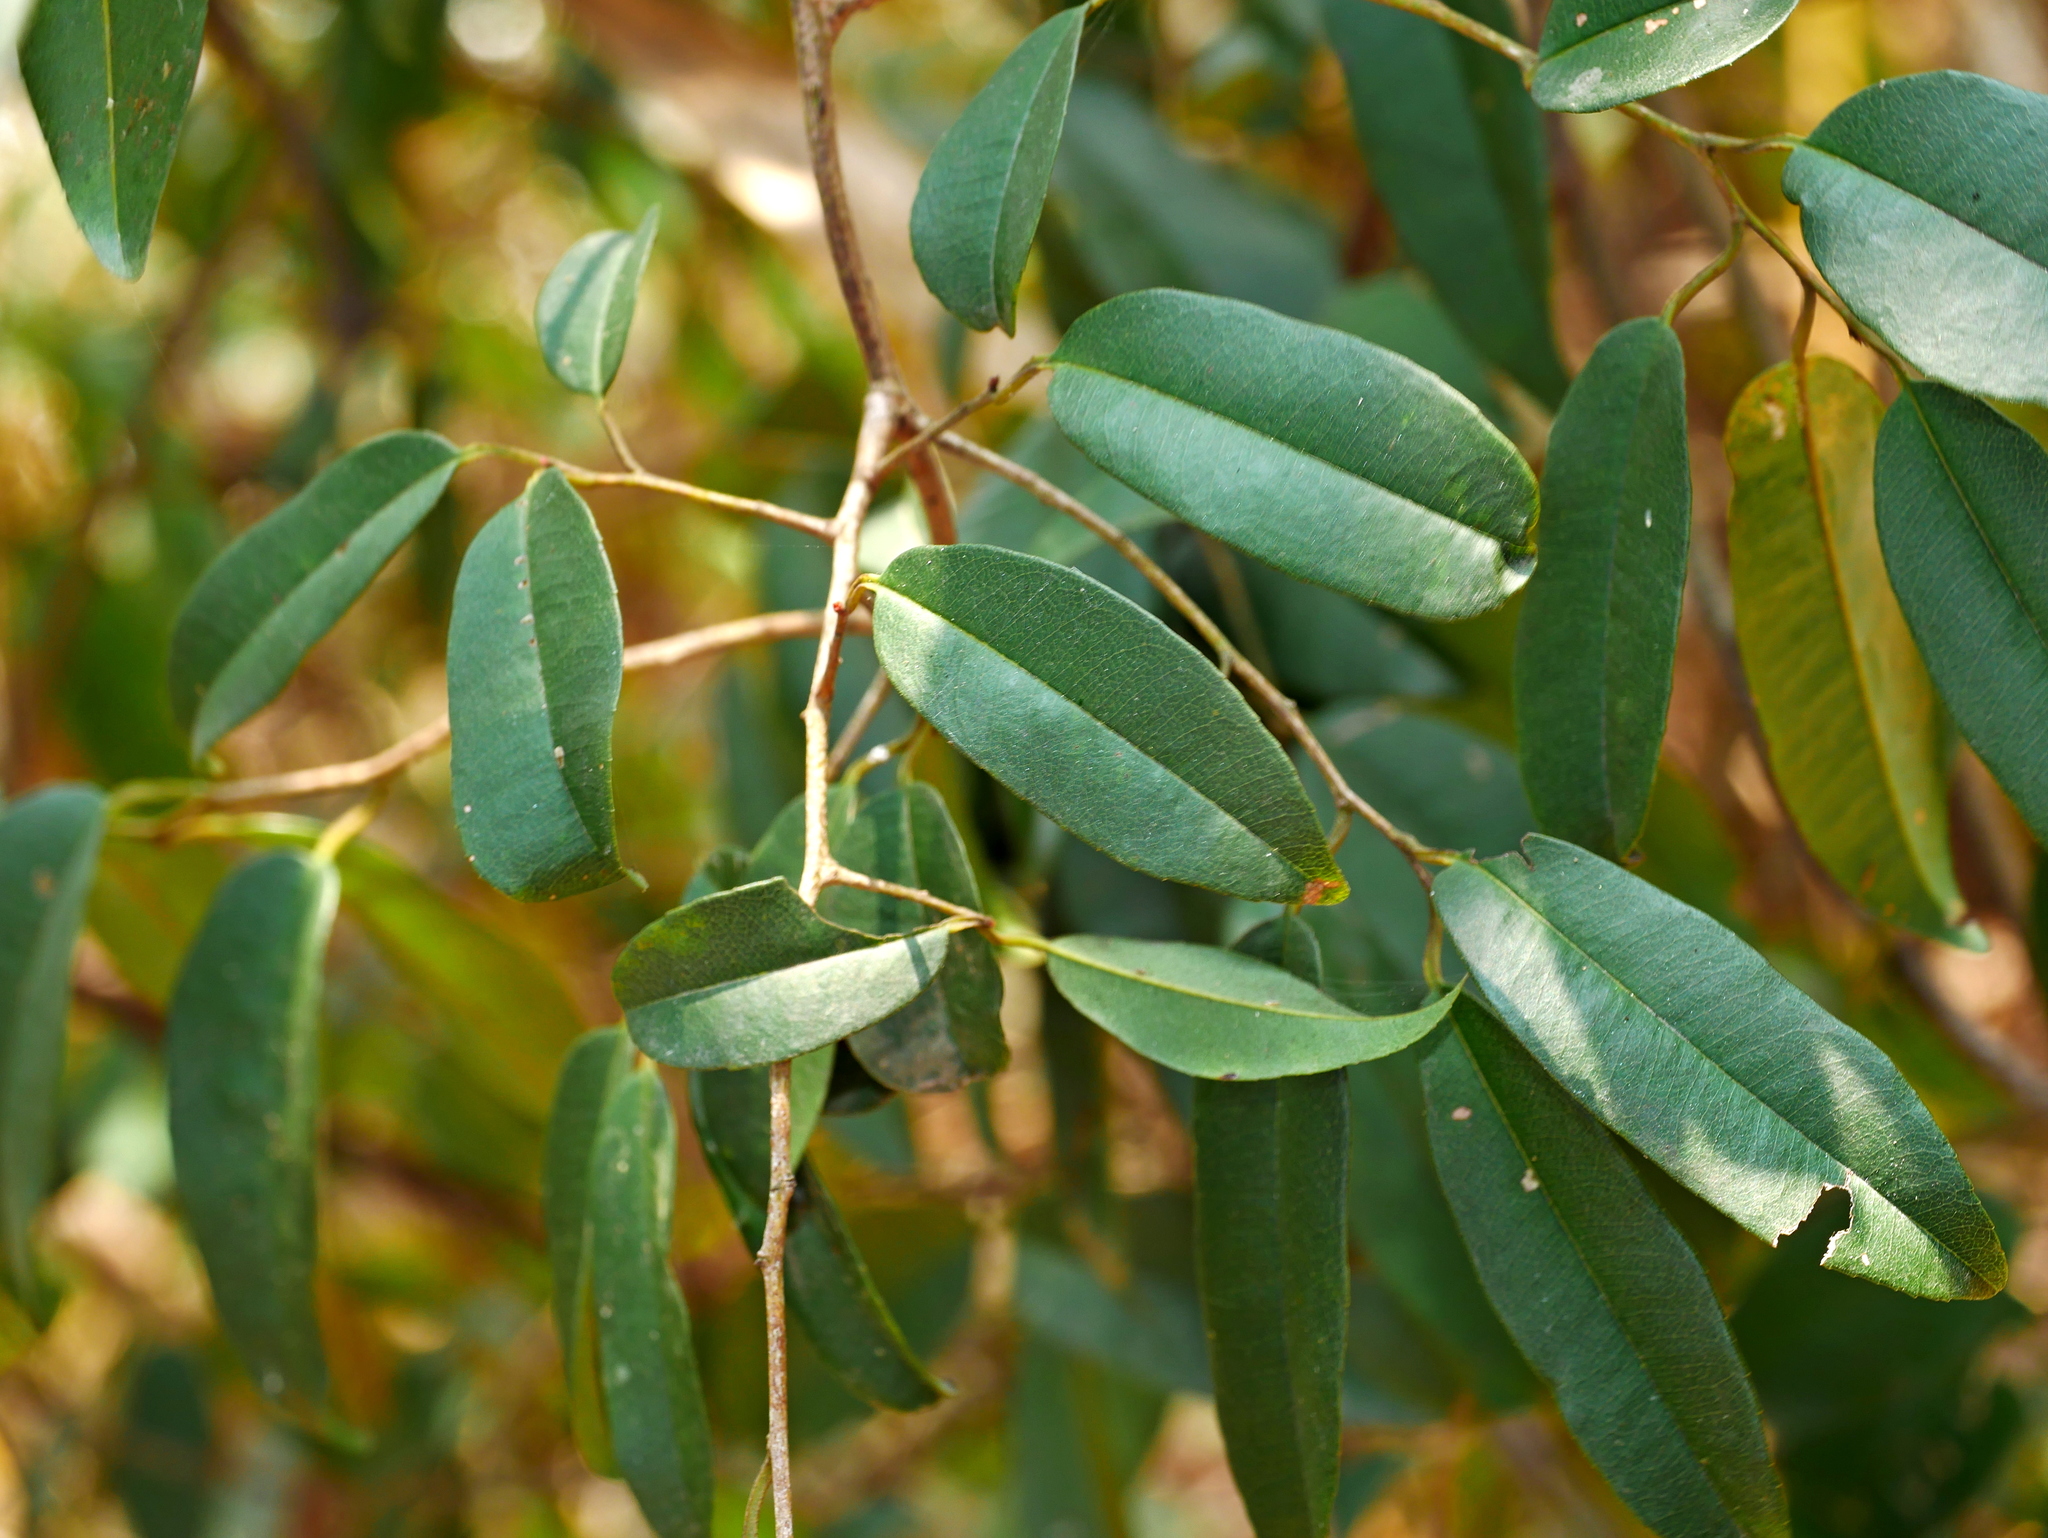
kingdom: Plantae
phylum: Tracheophyta
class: Magnoliopsida
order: Ericales
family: Primulaceae
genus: Embelia
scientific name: Embelia vestita
